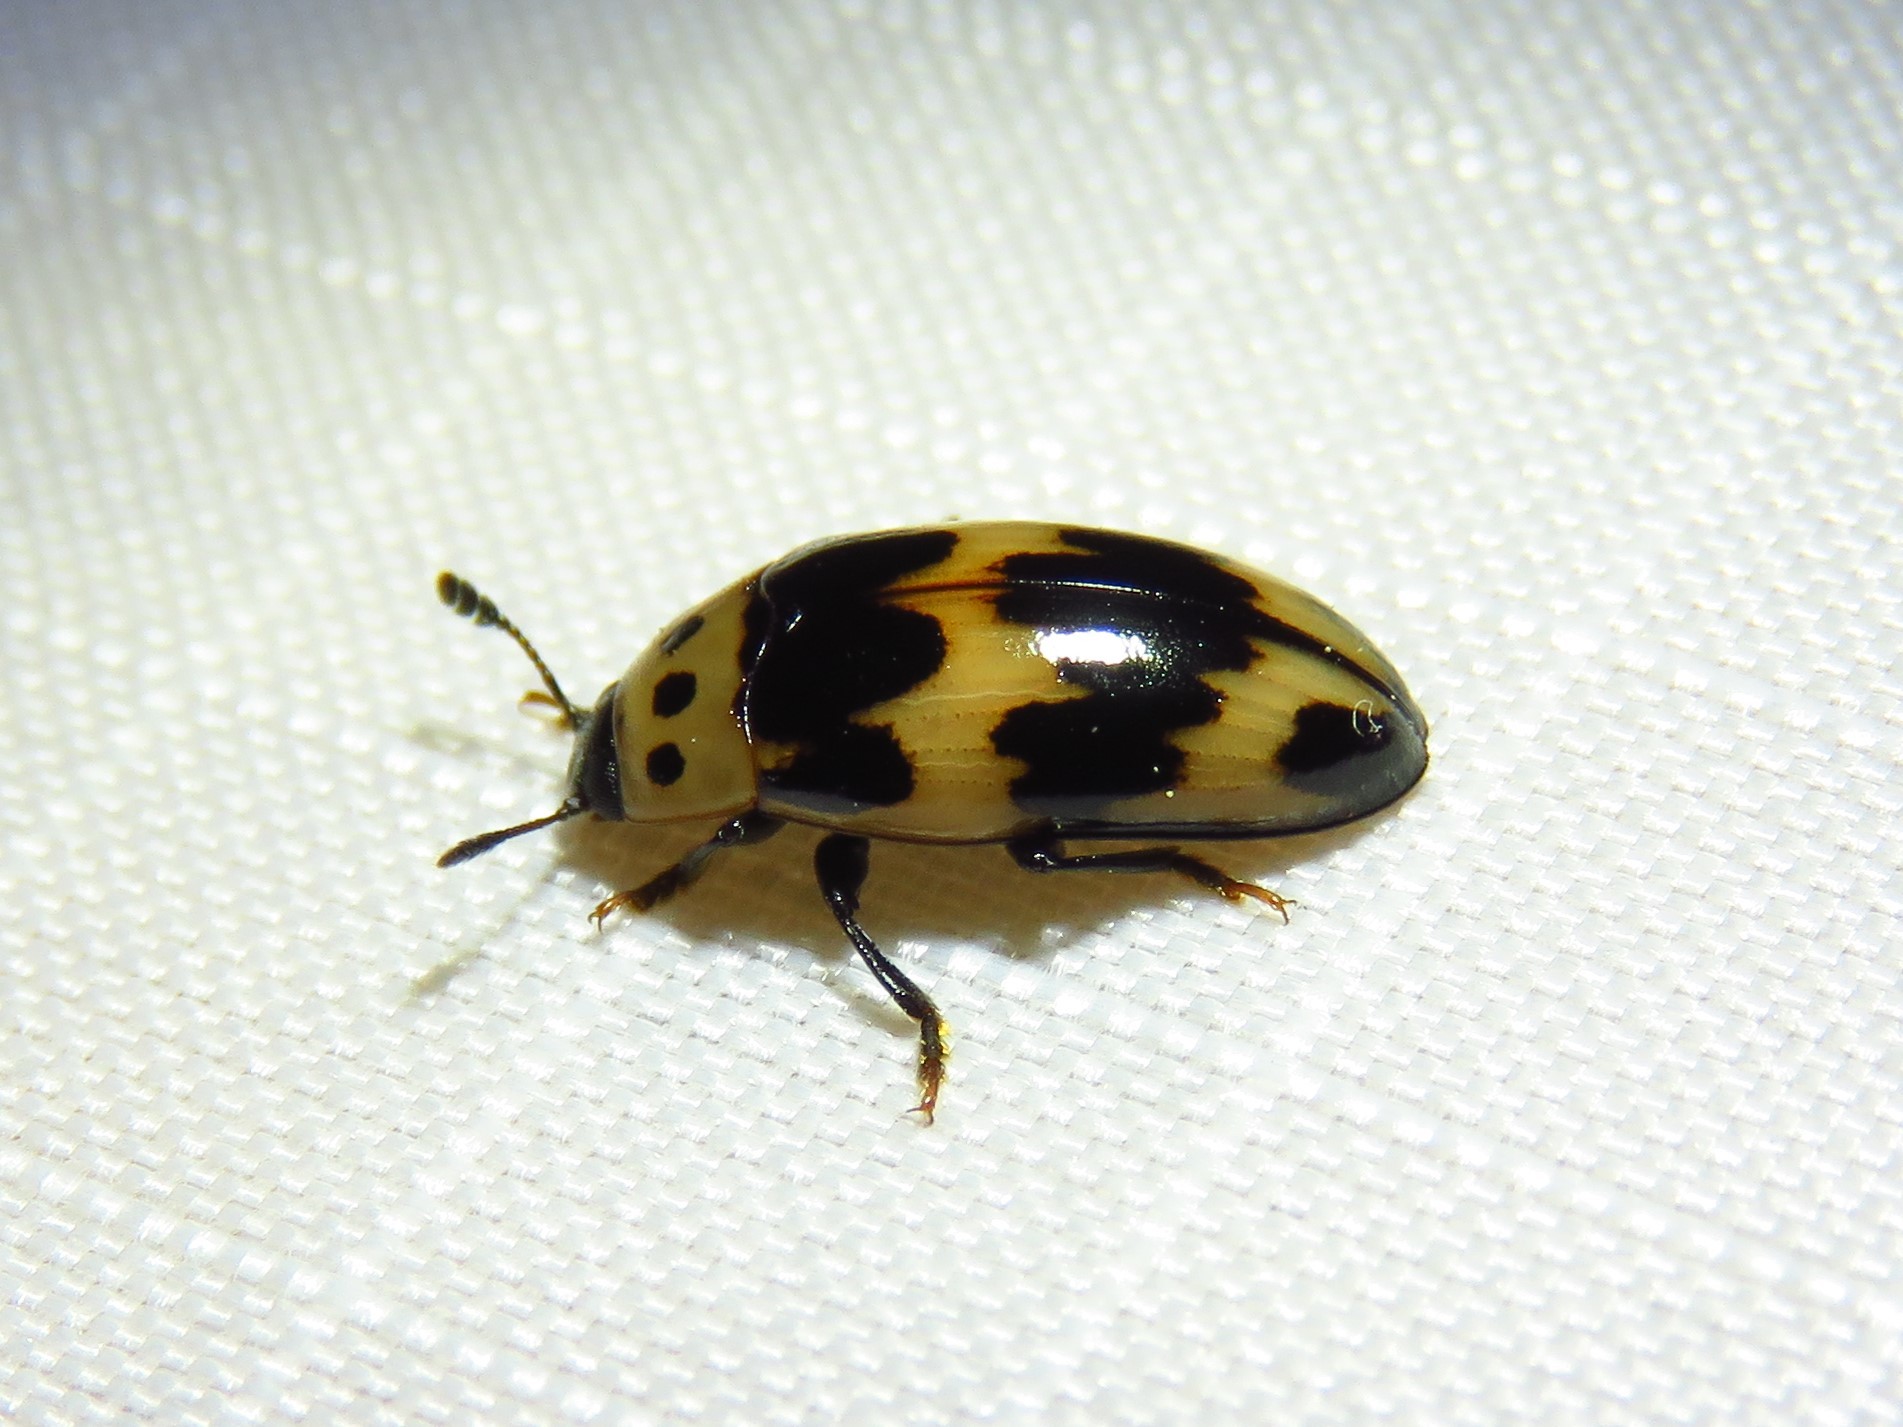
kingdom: Animalia
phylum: Arthropoda
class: Insecta
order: Coleoptera
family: Erotylidae
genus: Ischyrus
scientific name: Ischyrus quadripunctatus
